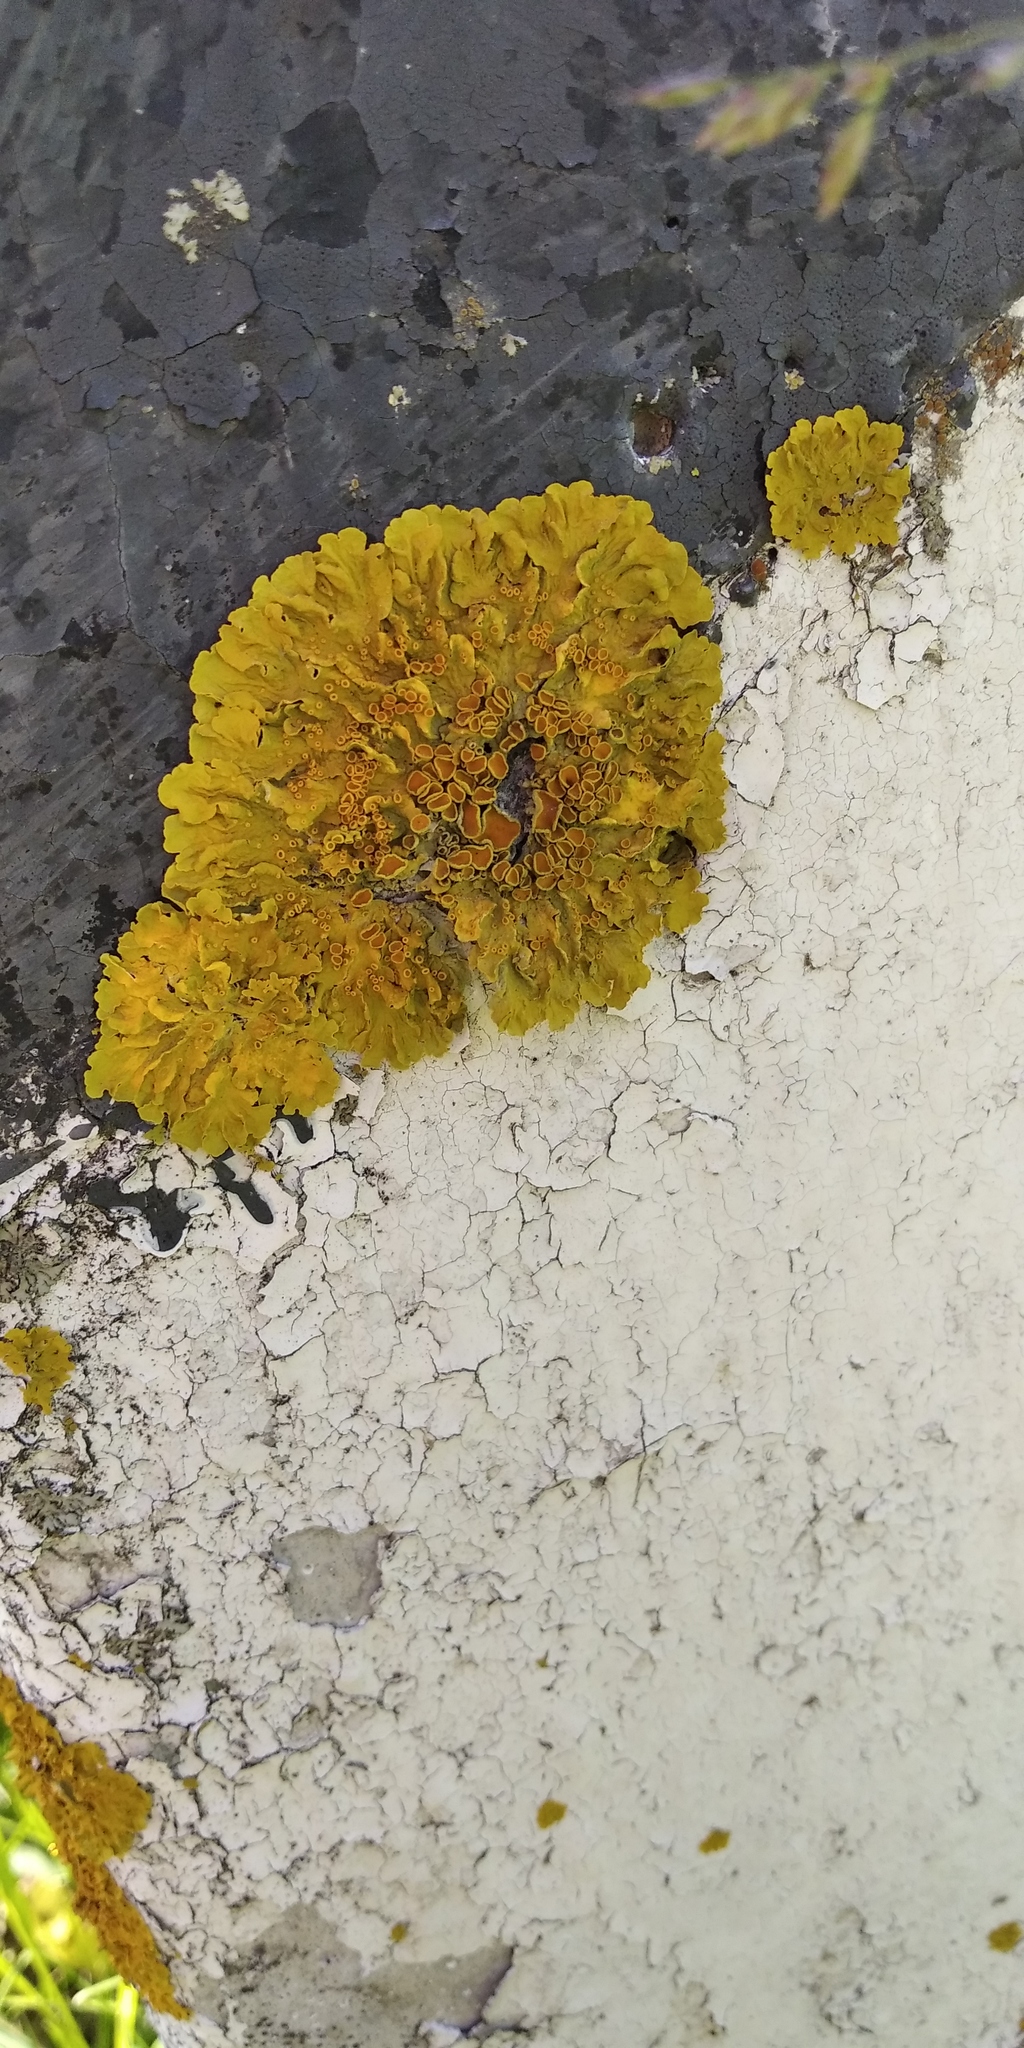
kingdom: Fungi
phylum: Ascomycota
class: Lecanoromycetes
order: Teloschistales
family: Teloschistaceae
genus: Xanthoria
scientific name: Xanthoria parietina
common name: Common orange lichen
